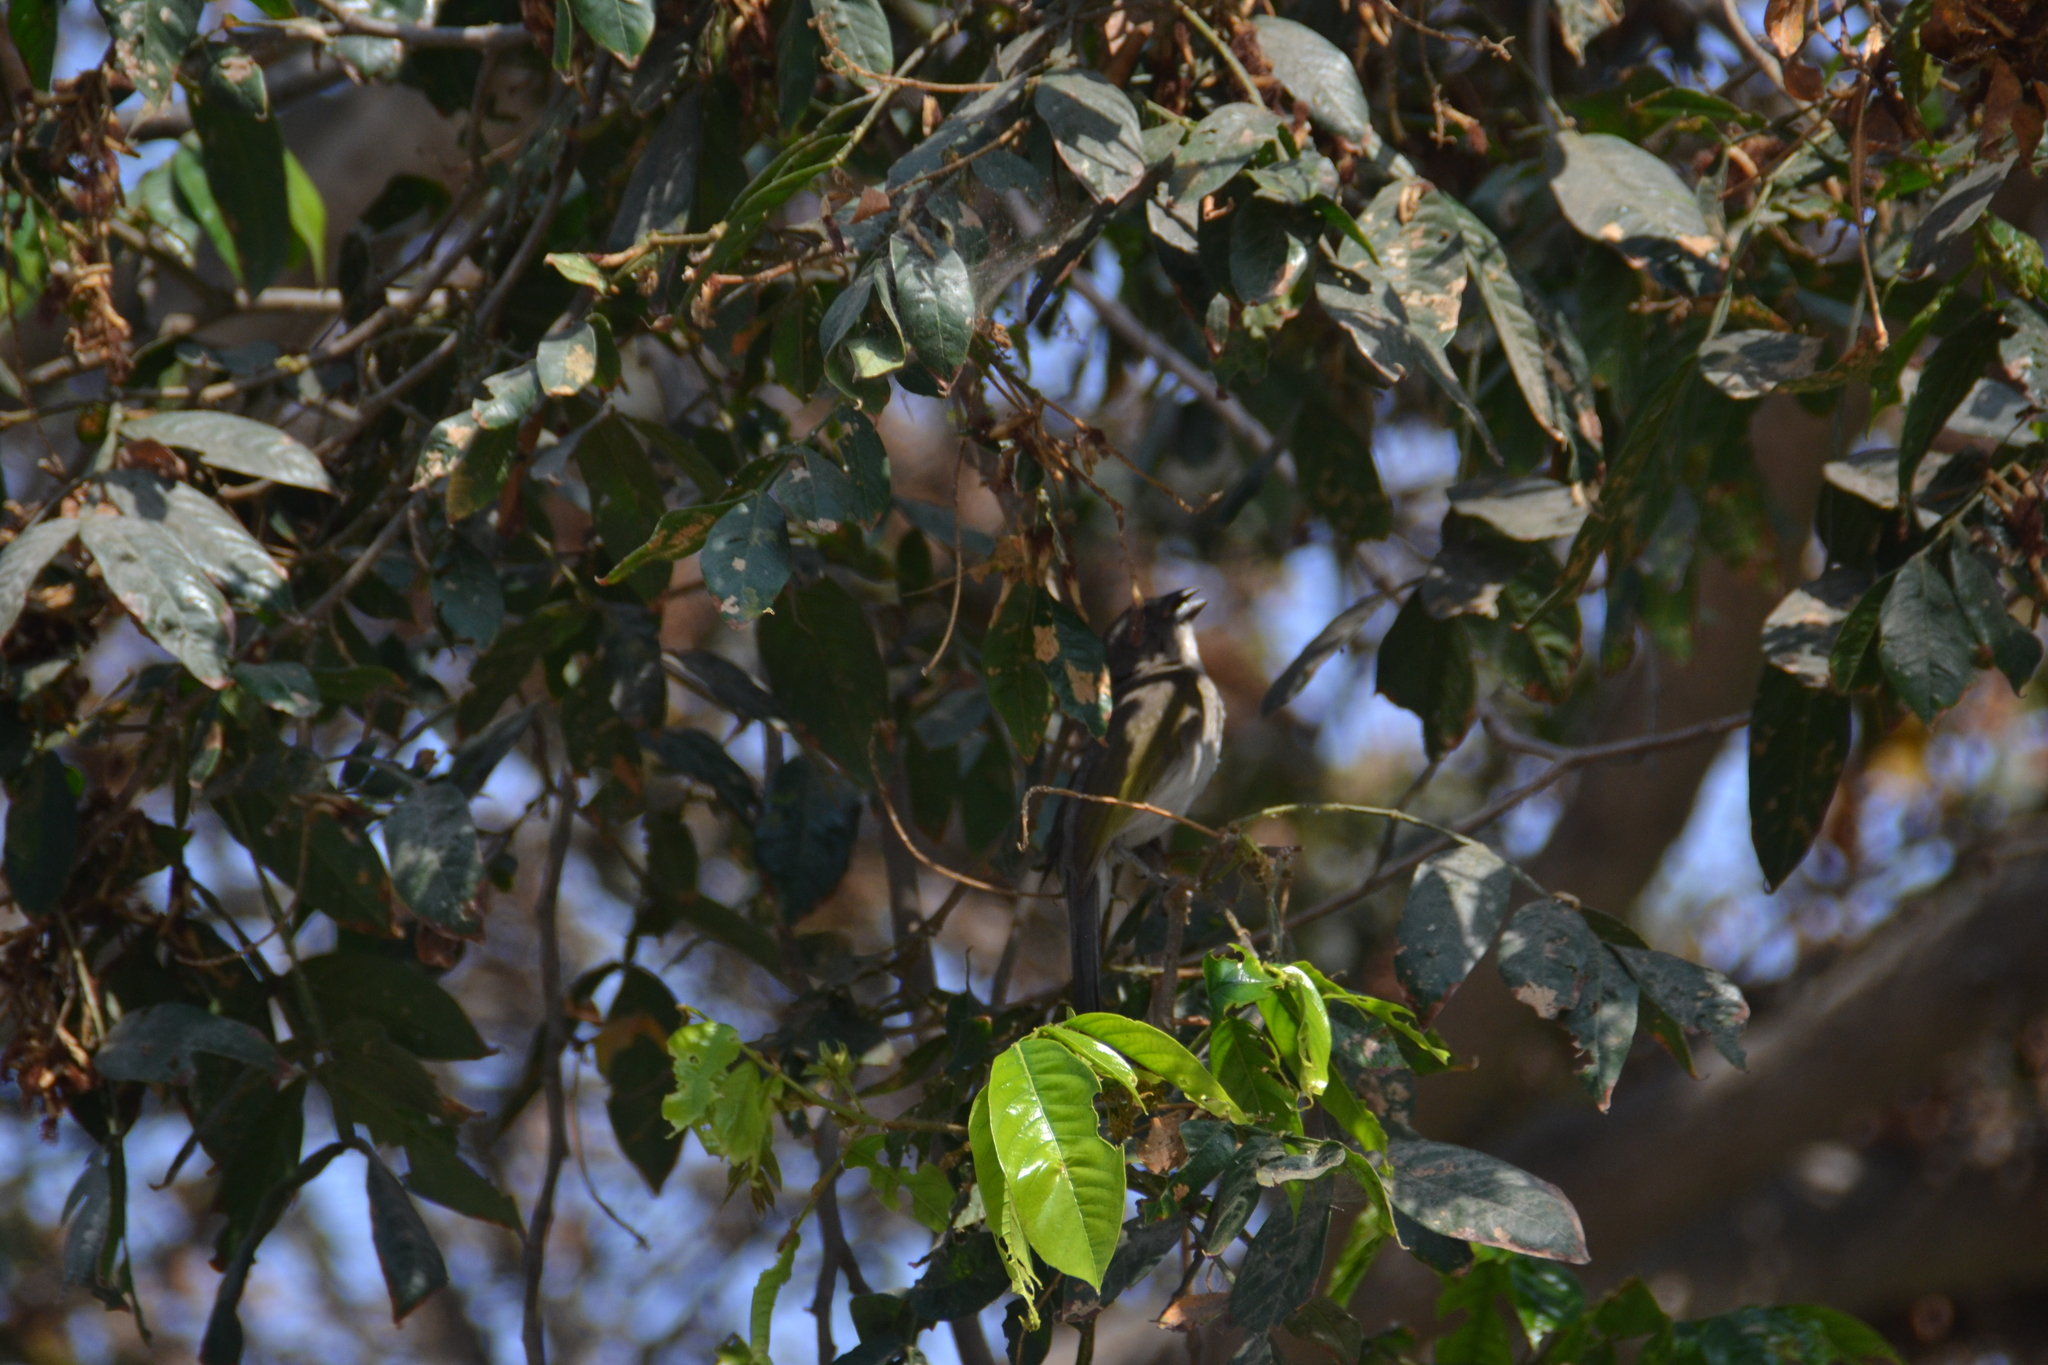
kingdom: Animalia
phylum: Chordata
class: Aves
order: Passeriformes
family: Thraupidae
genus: Saltator
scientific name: Saltator striatipectus
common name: Streaked saltator
